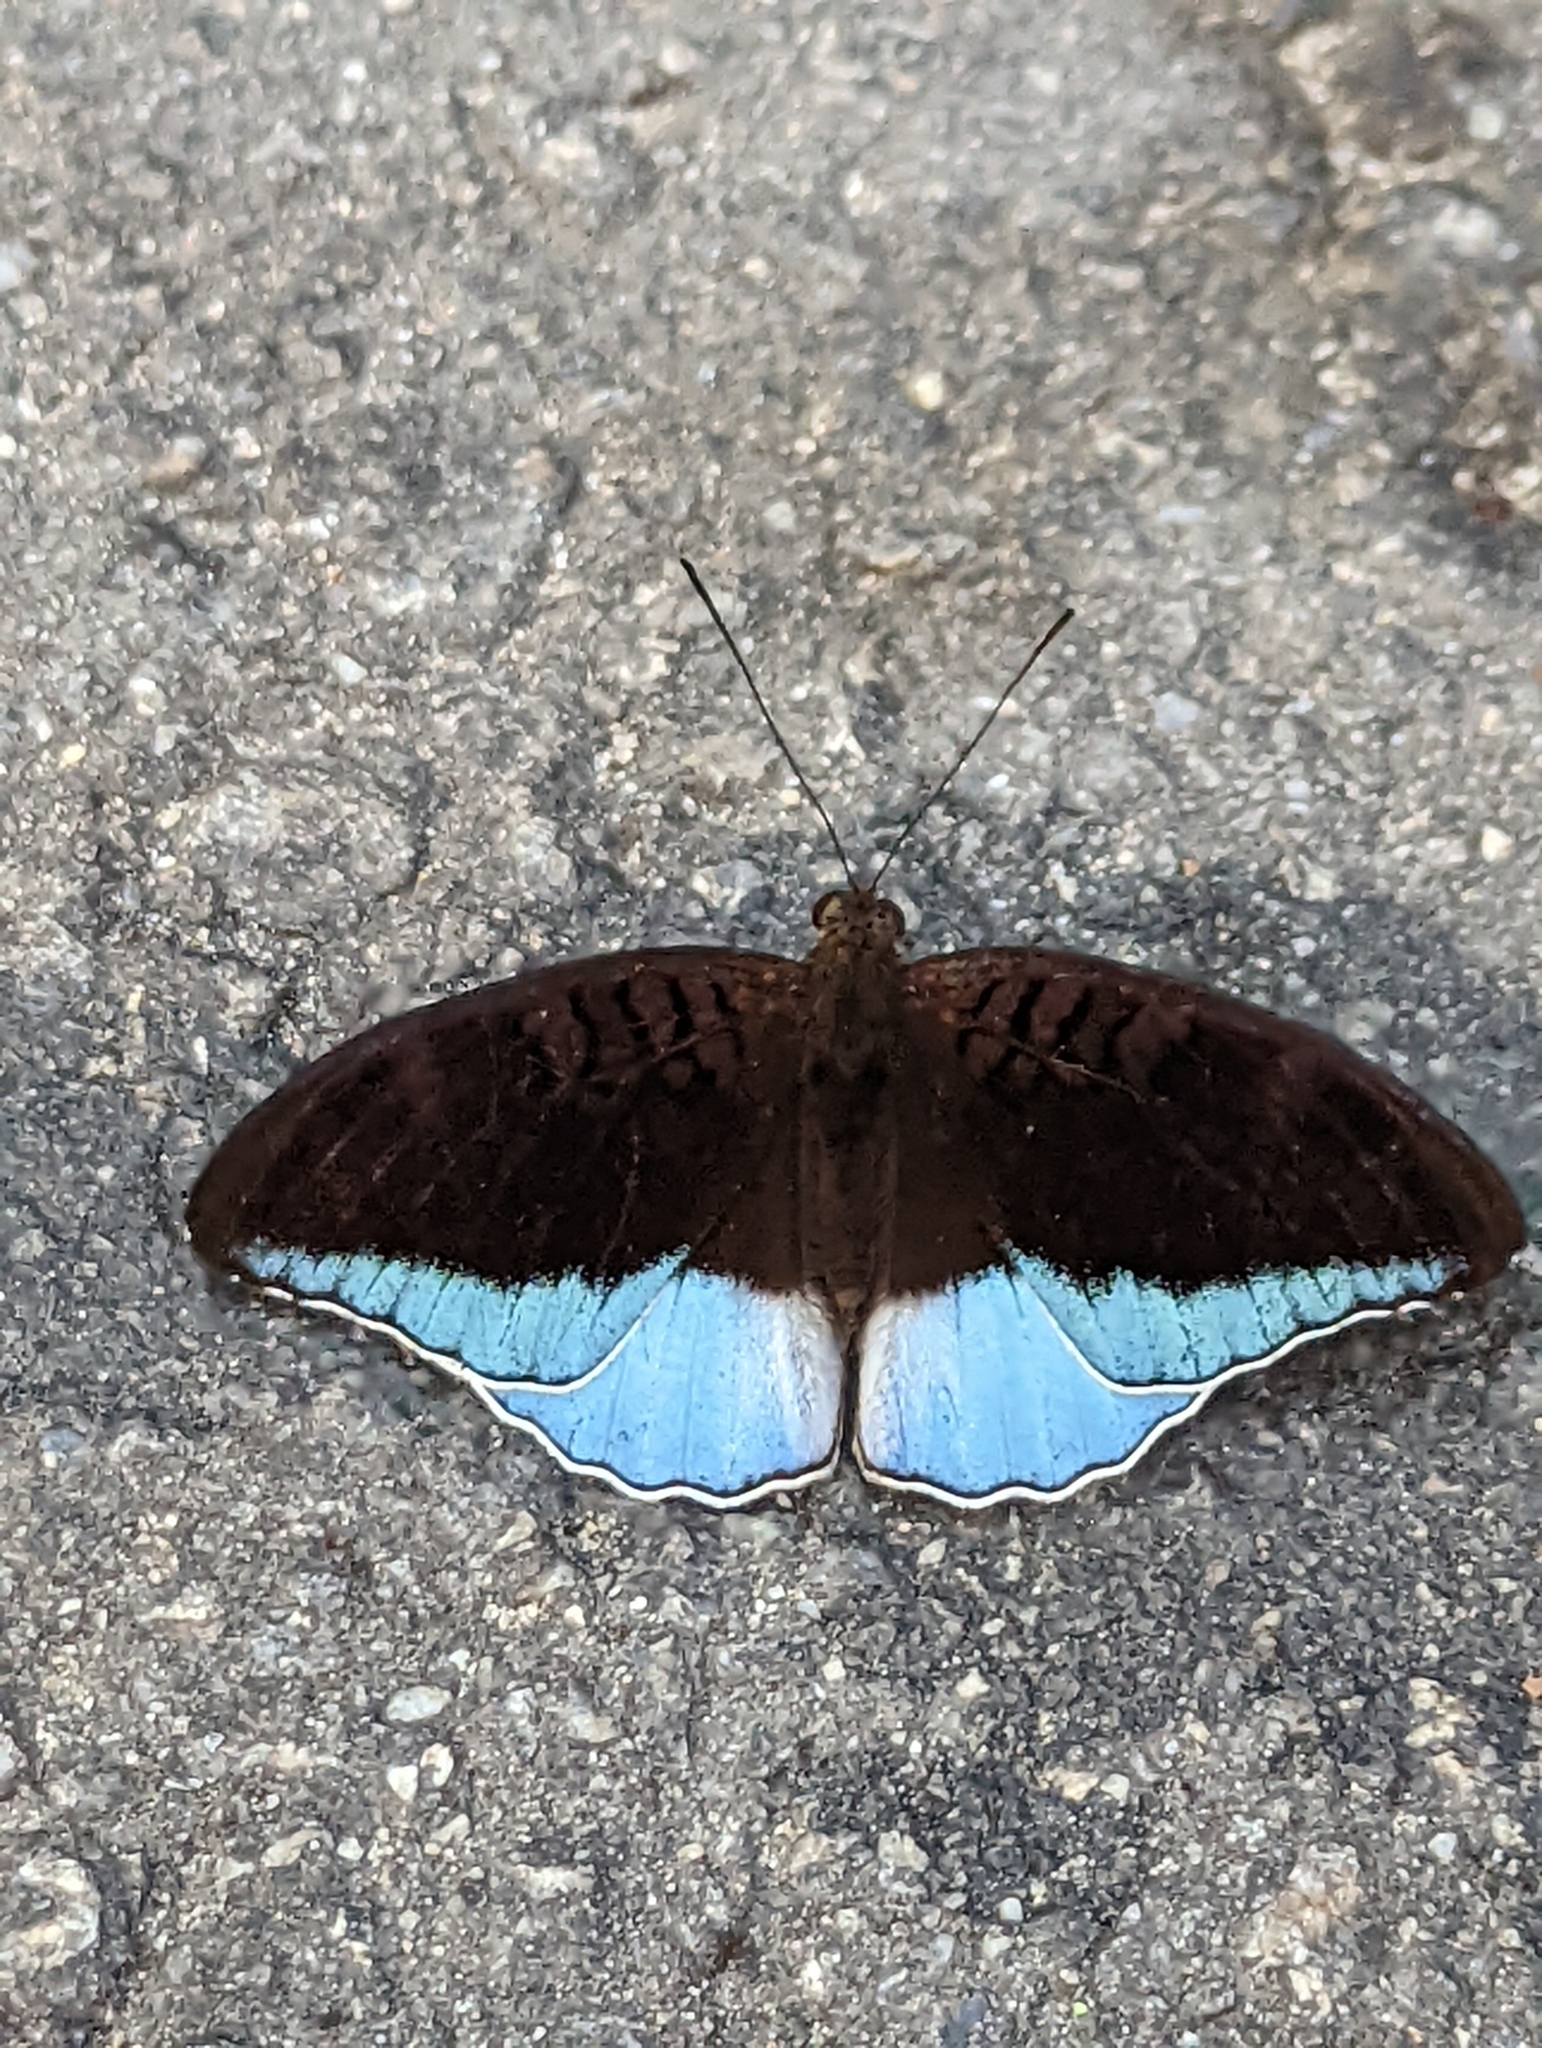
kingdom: Animalia
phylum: Arthropoda
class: Insecta
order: Lepidoptera
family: Nymphalidae
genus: Tanaecia
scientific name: Tanaecia iapis
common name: Horsfield's baron
